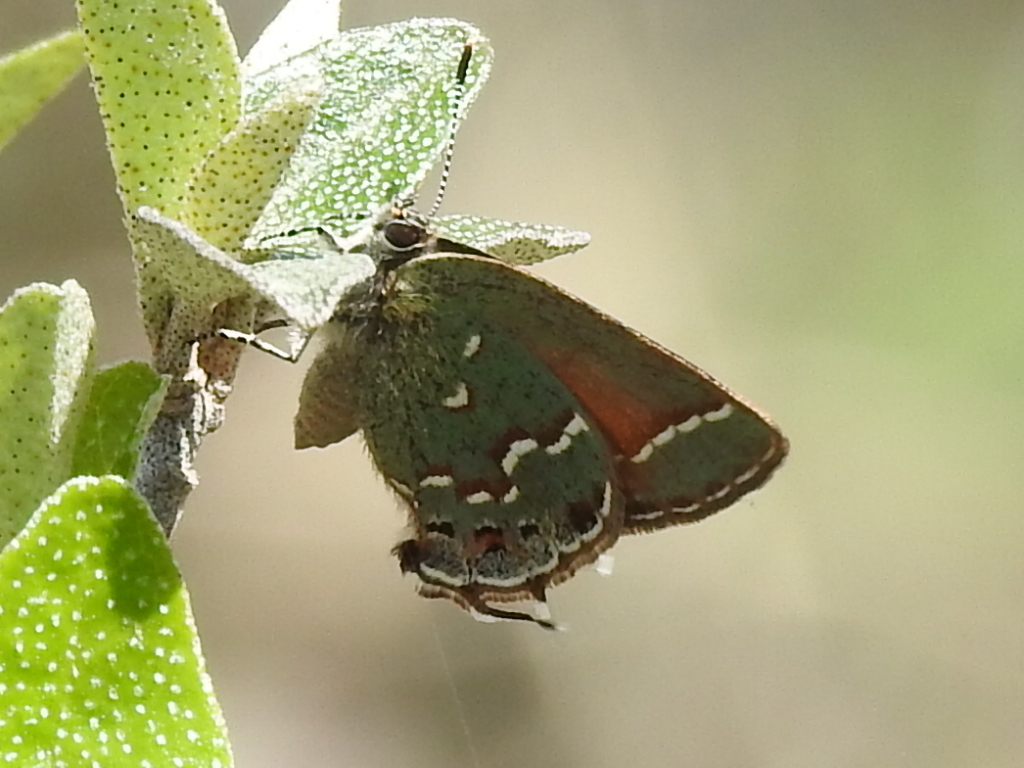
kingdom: Animalia
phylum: Arthropoda
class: Insecta
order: Lepidoptera
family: Lycaenidae
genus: Mitoura
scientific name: Mitoura gryneus
